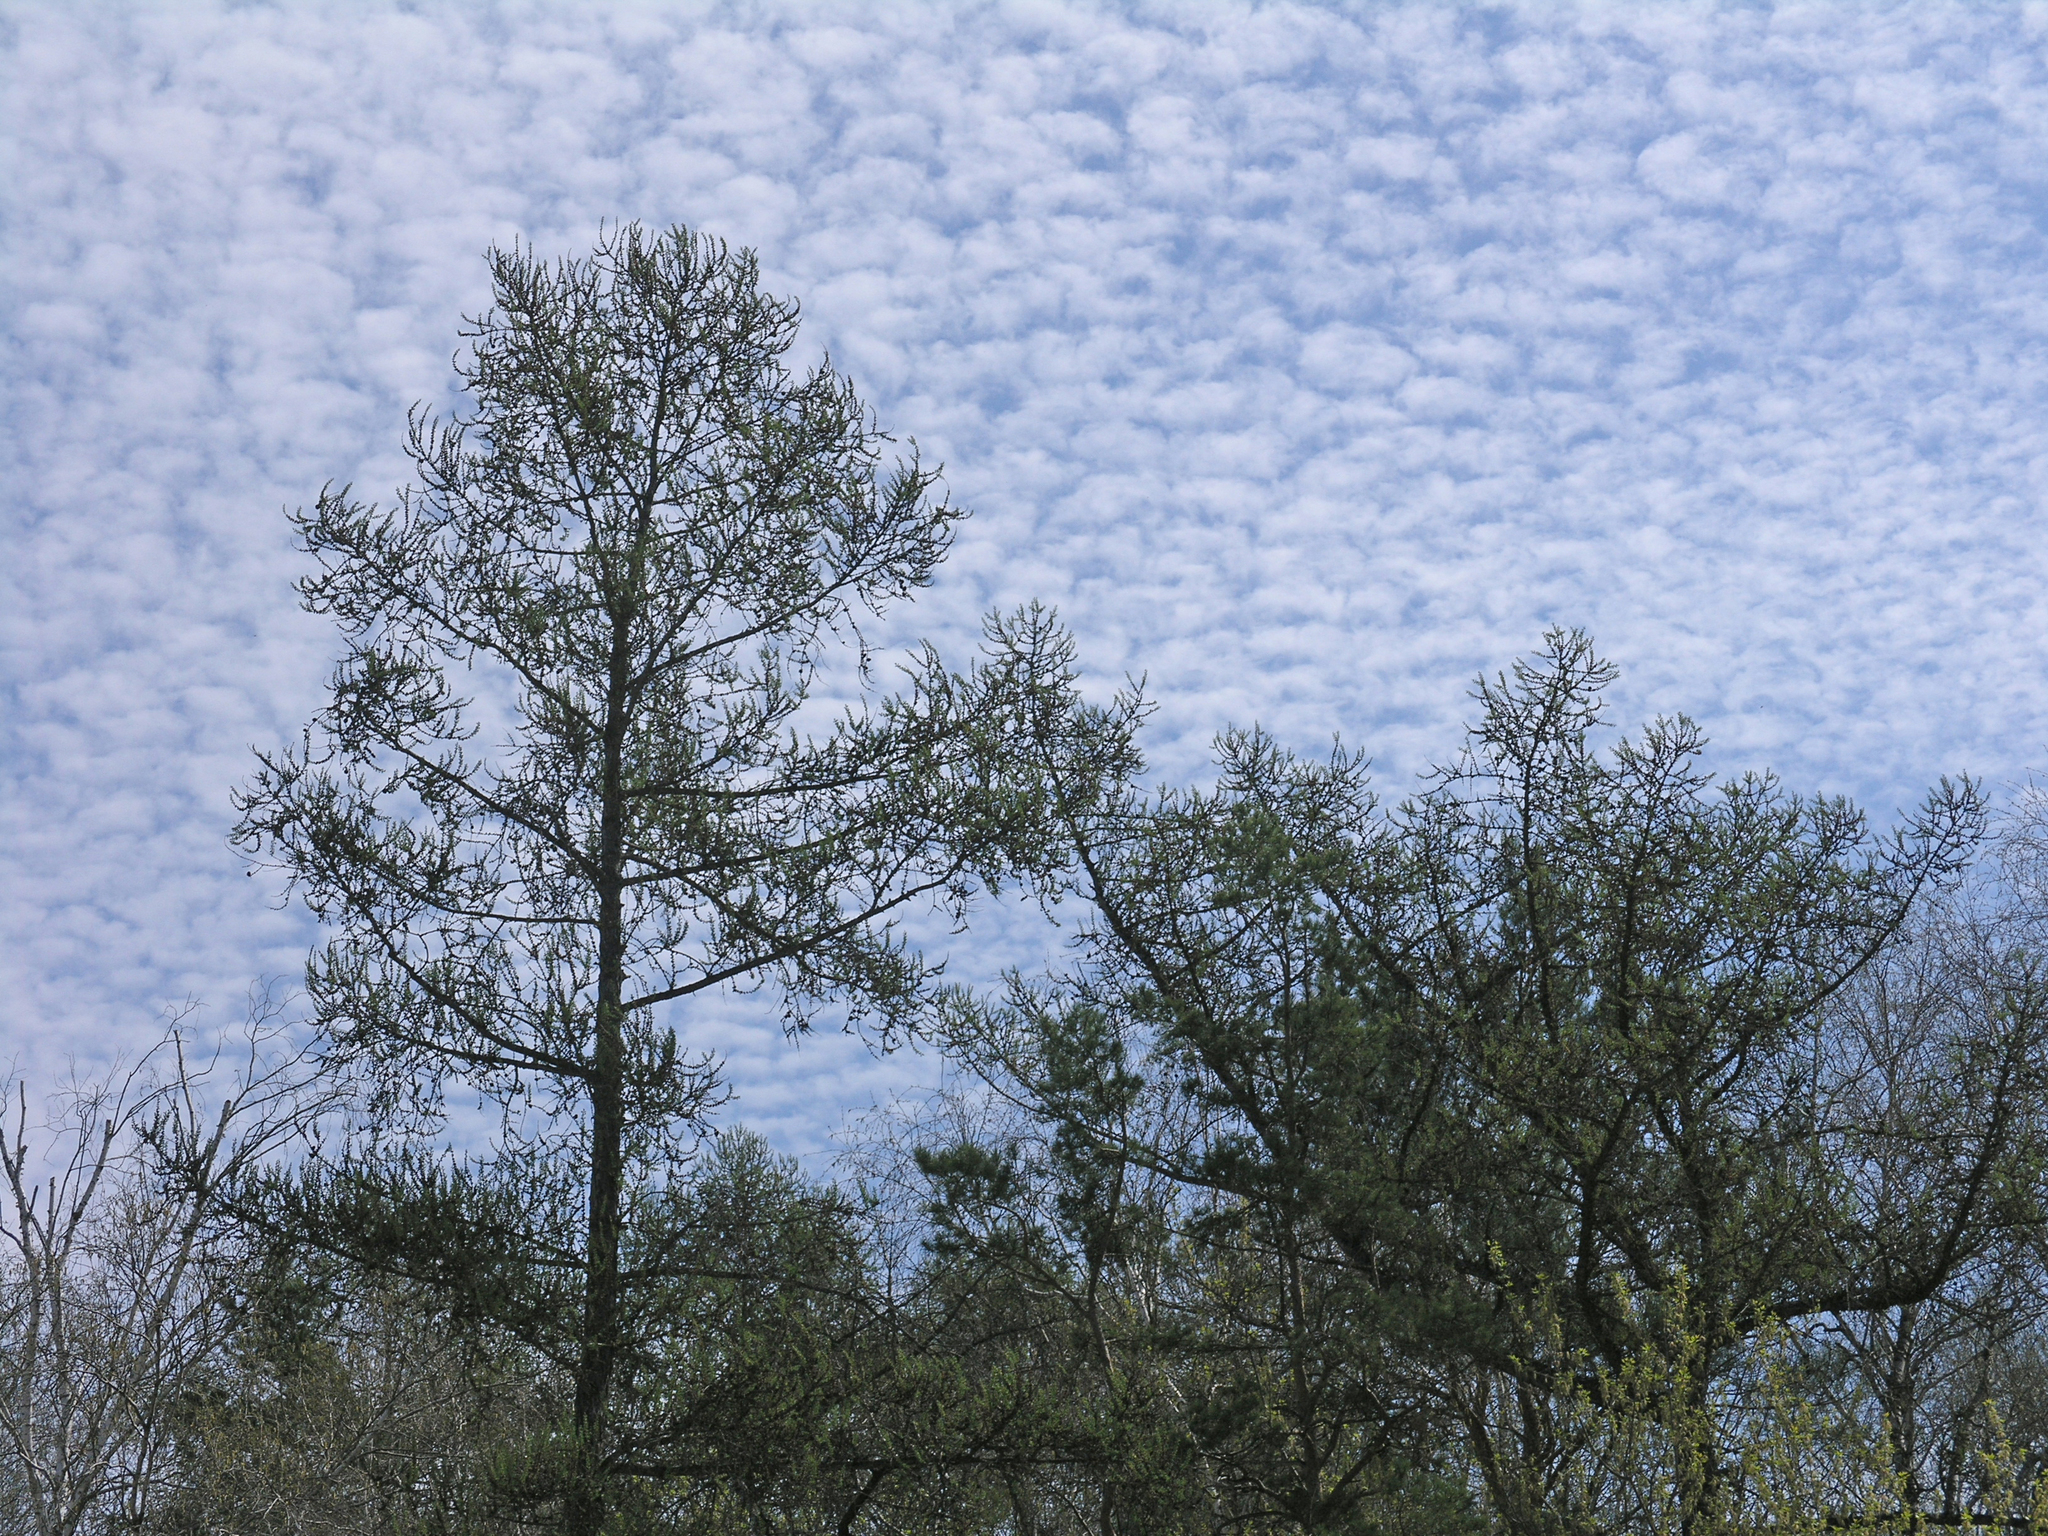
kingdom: Plantae
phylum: Tracheophyta
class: Pinopsida
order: Pinales
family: Pinaceae
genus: Larix
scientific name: Larix sibirica
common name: Siberian larch
